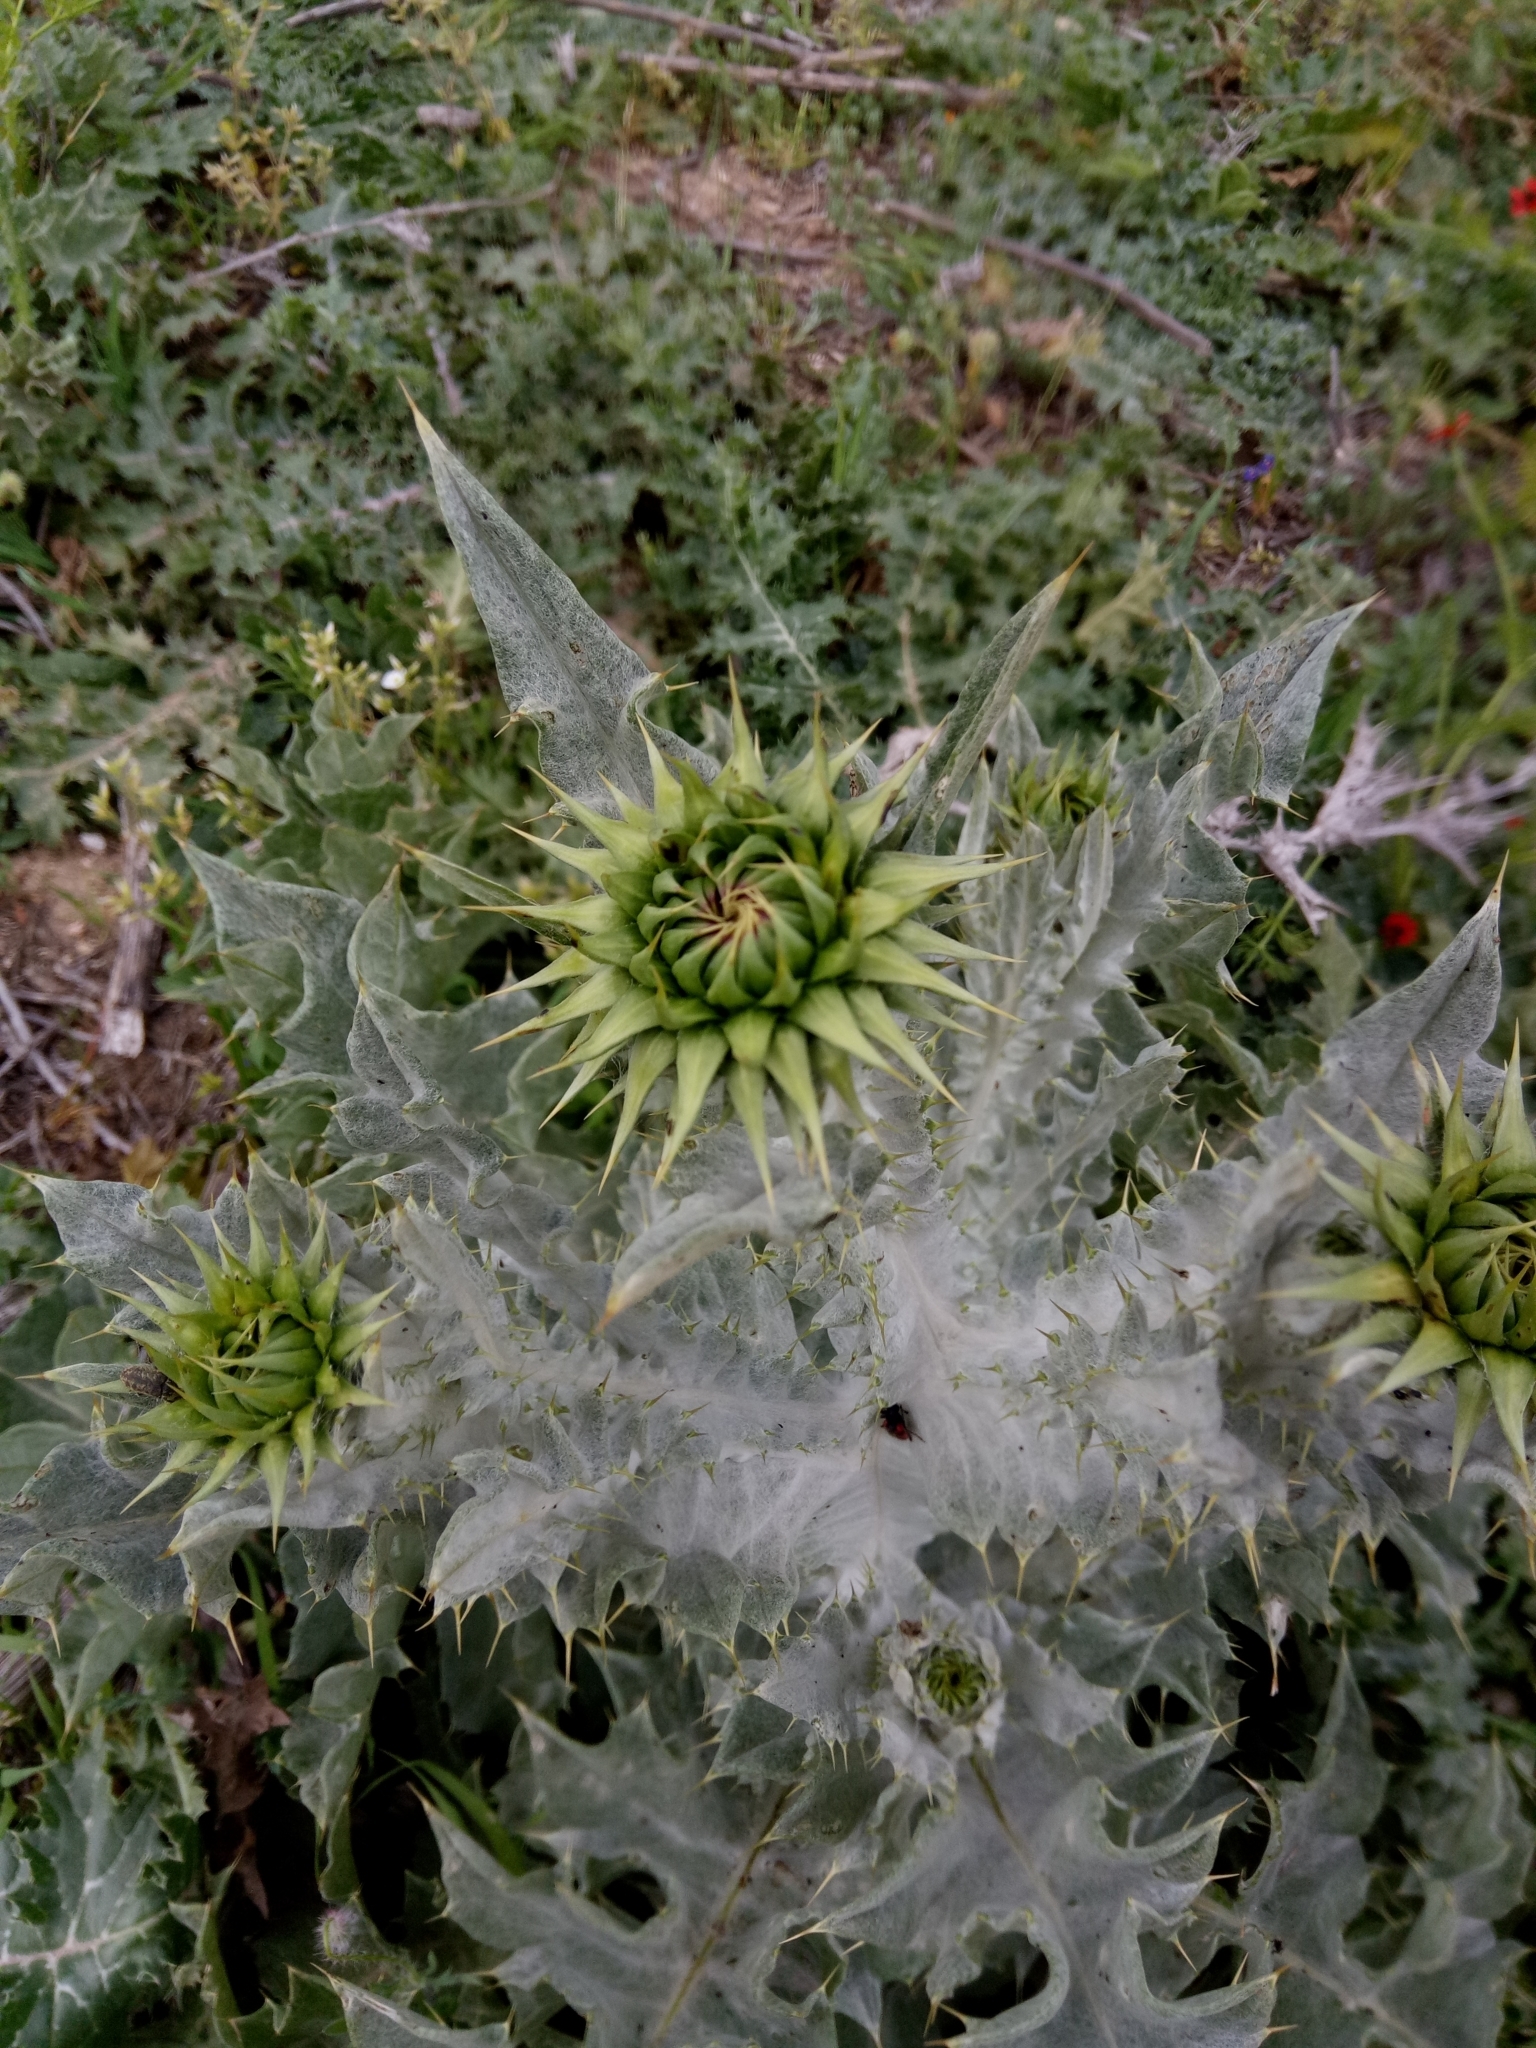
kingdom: Plantae
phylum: Tracheophyta
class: Magnoliopsida
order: Asterales
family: Asteraceae
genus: Onopordum
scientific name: Onopordum macracanthum
